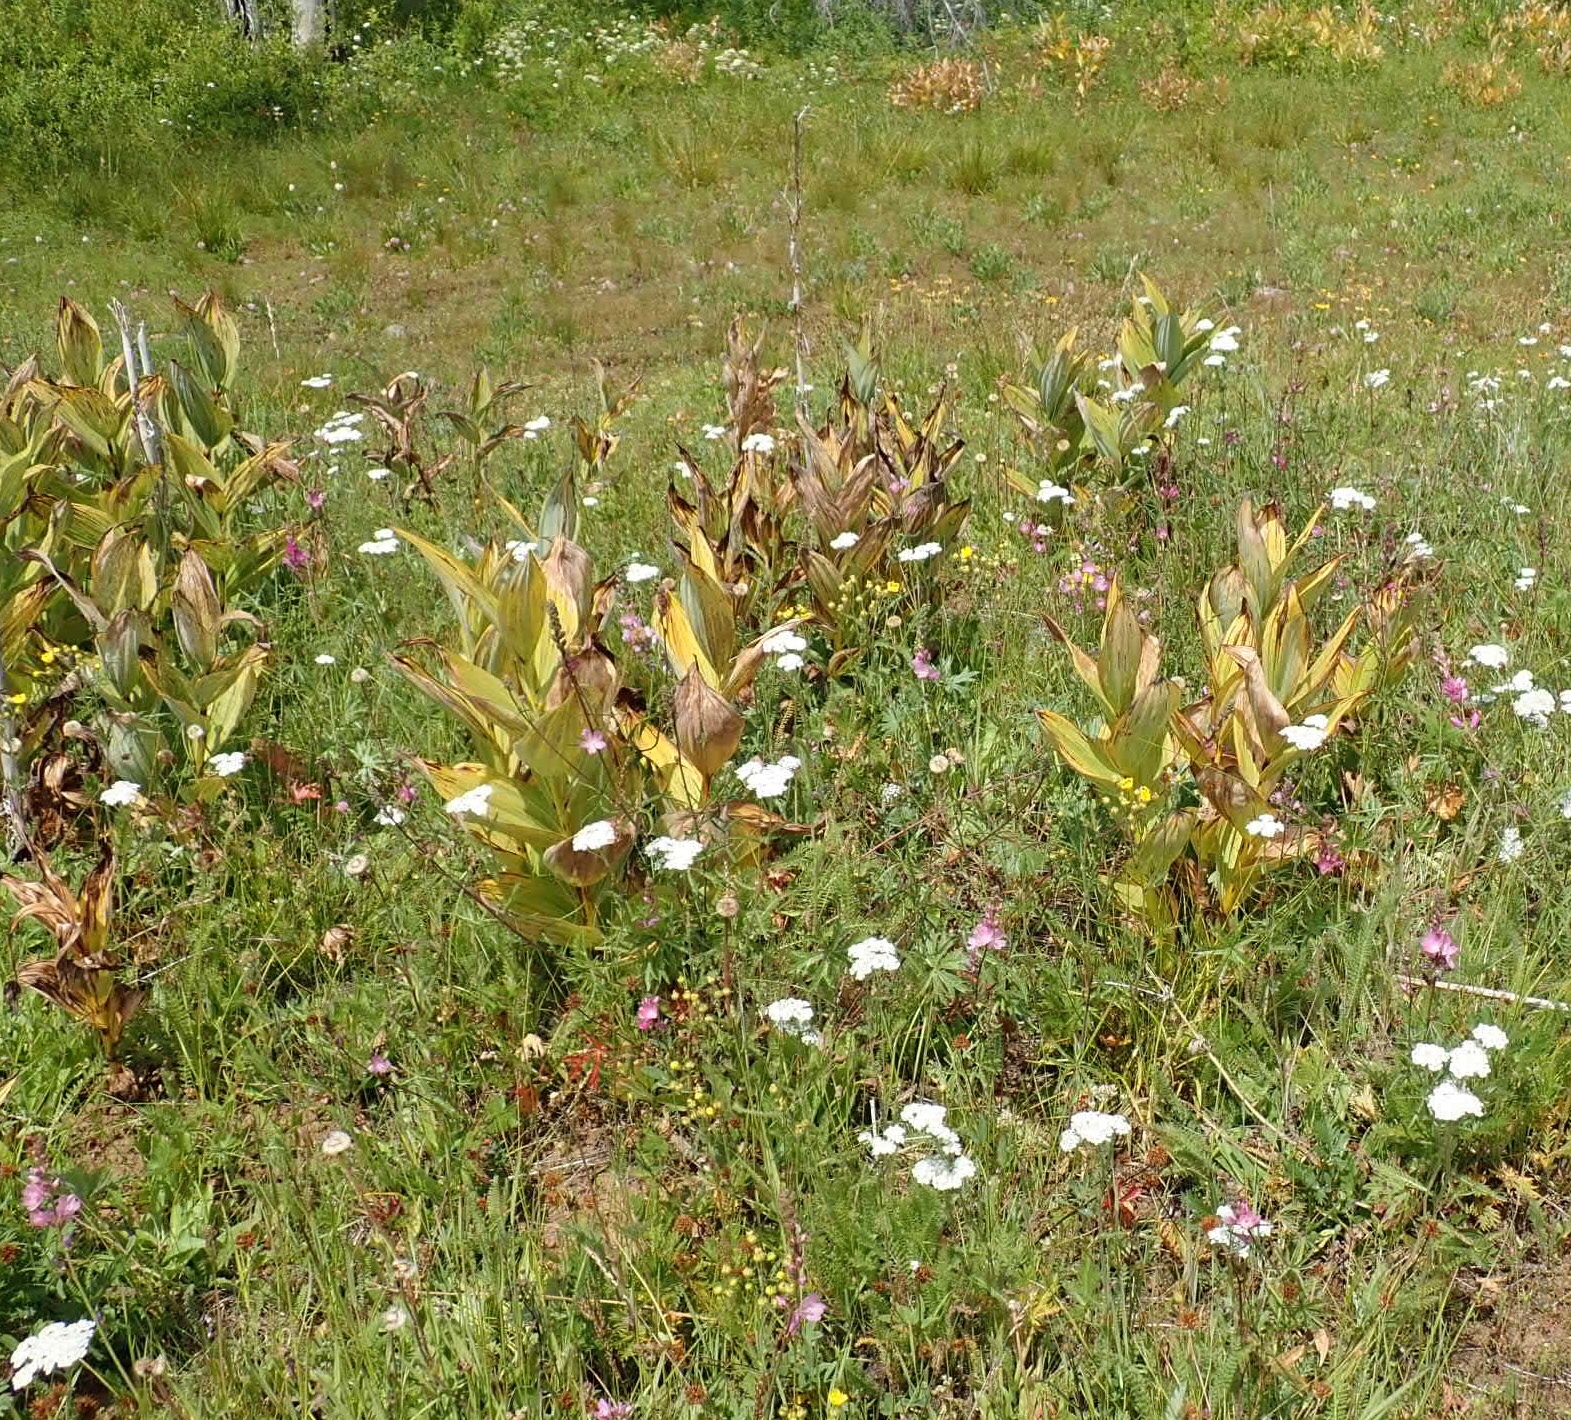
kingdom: Plantae
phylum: Tracheophyta
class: Liliopsida
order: Liliales
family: Melanthiaceae
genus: Veratrum
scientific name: Veratrum californicum
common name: California veratrum
